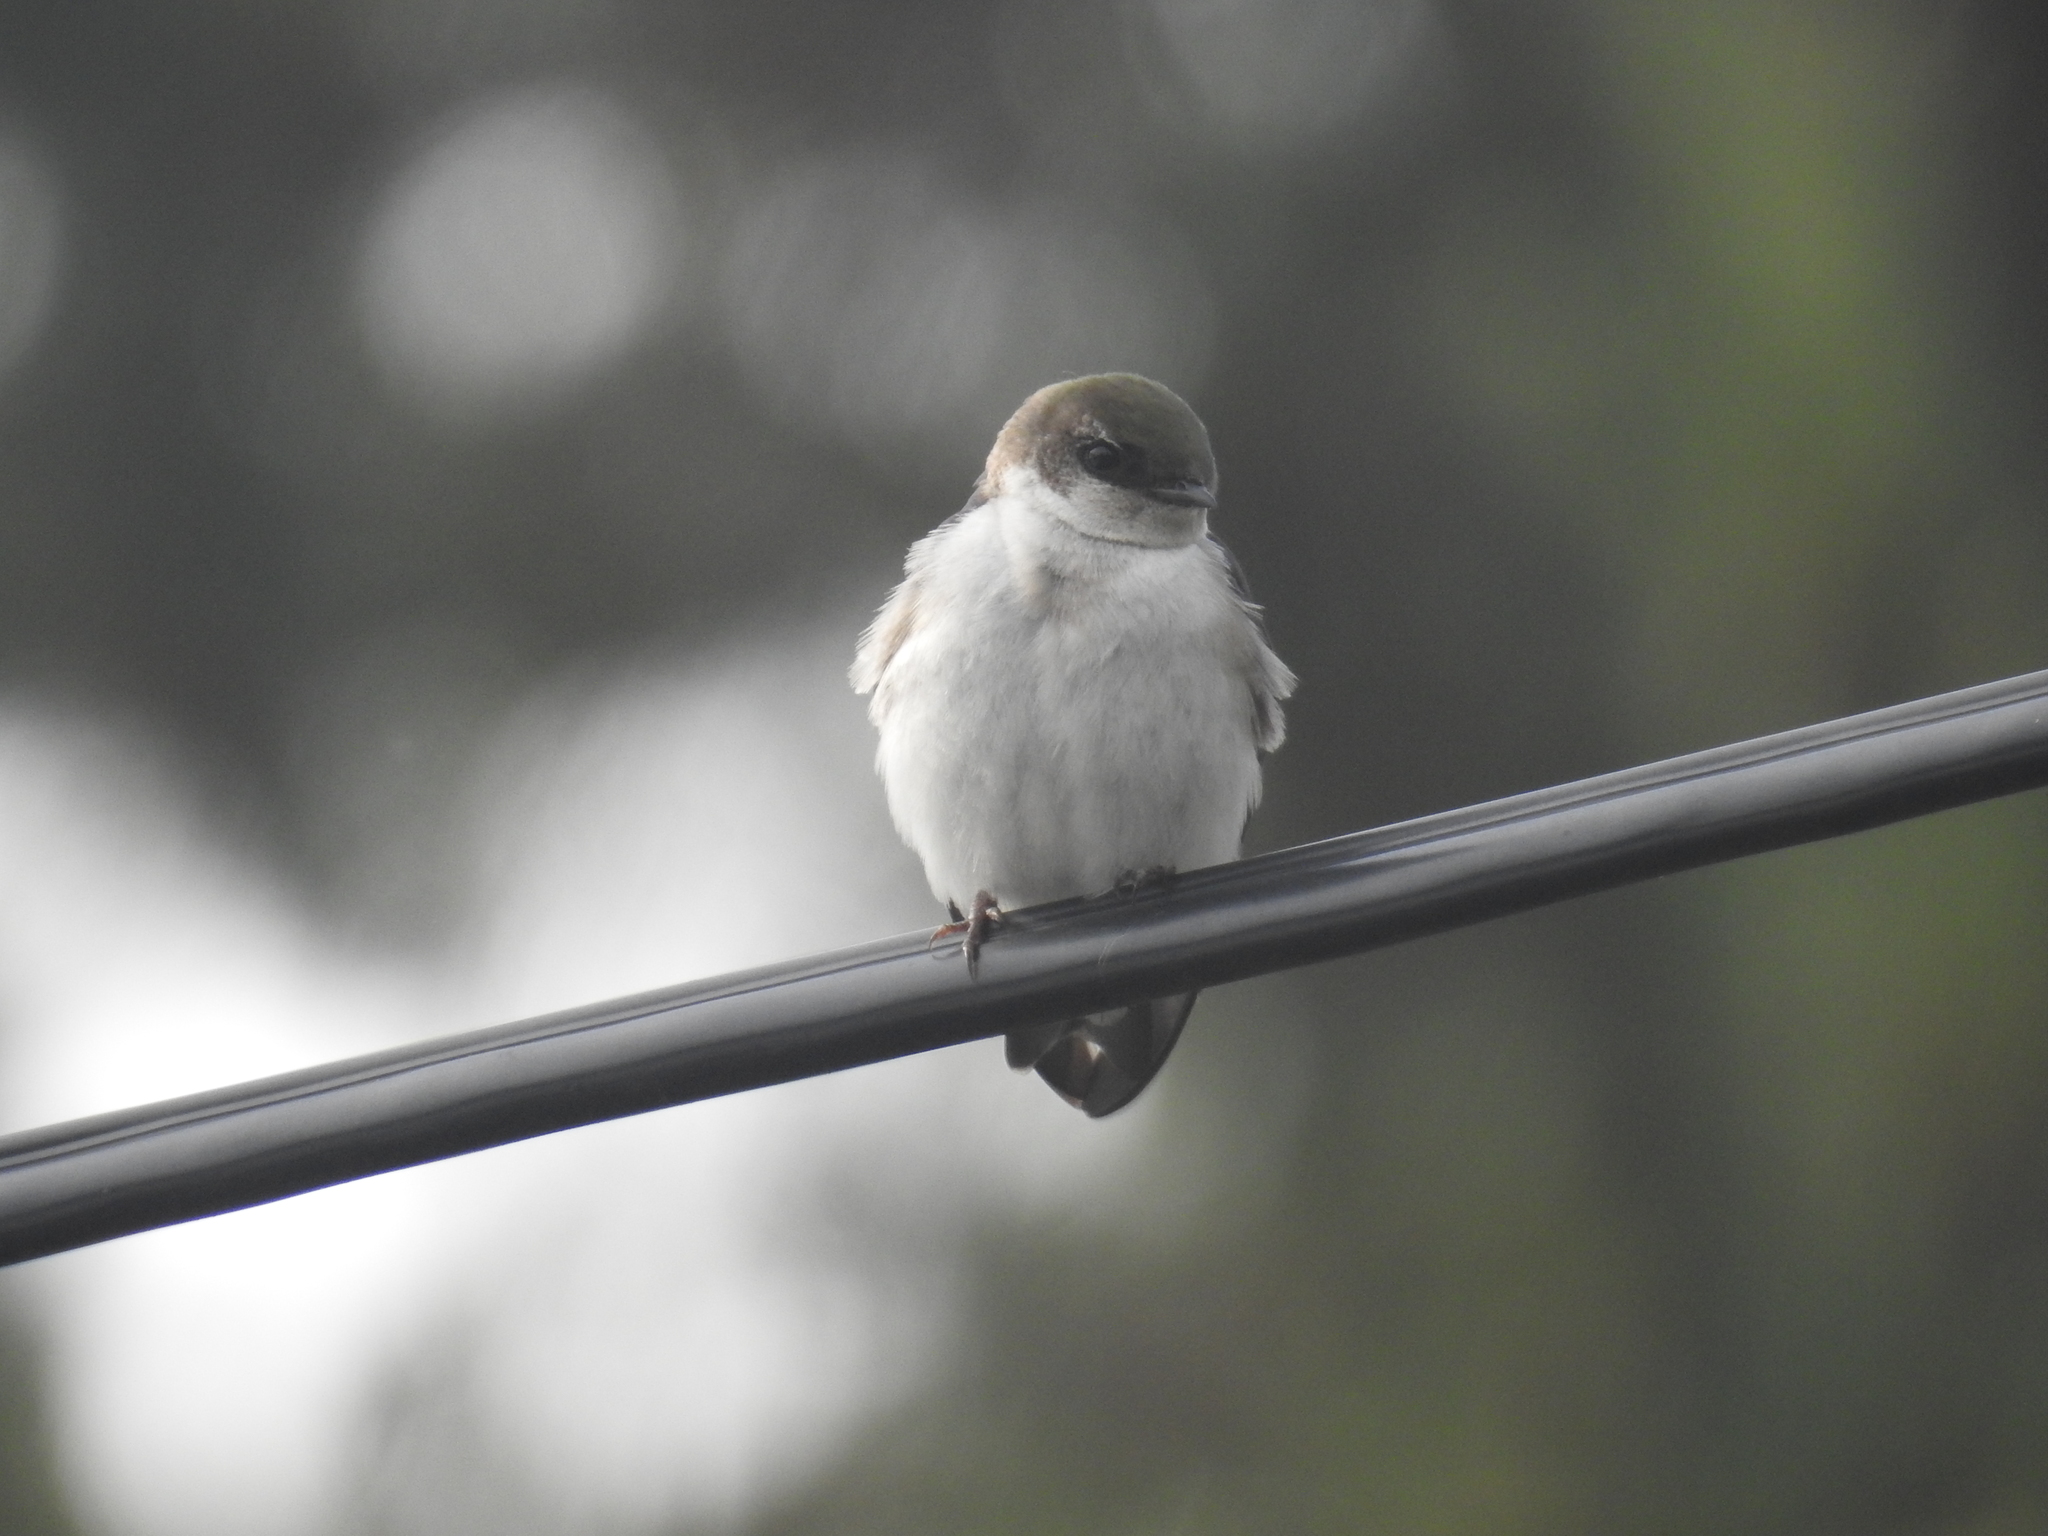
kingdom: Animalia
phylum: Chordata
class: Aves
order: Passeriformes
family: Hirundinidae
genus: Tachycineta
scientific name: Tachycineta thalassina
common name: Violet-green swallow
